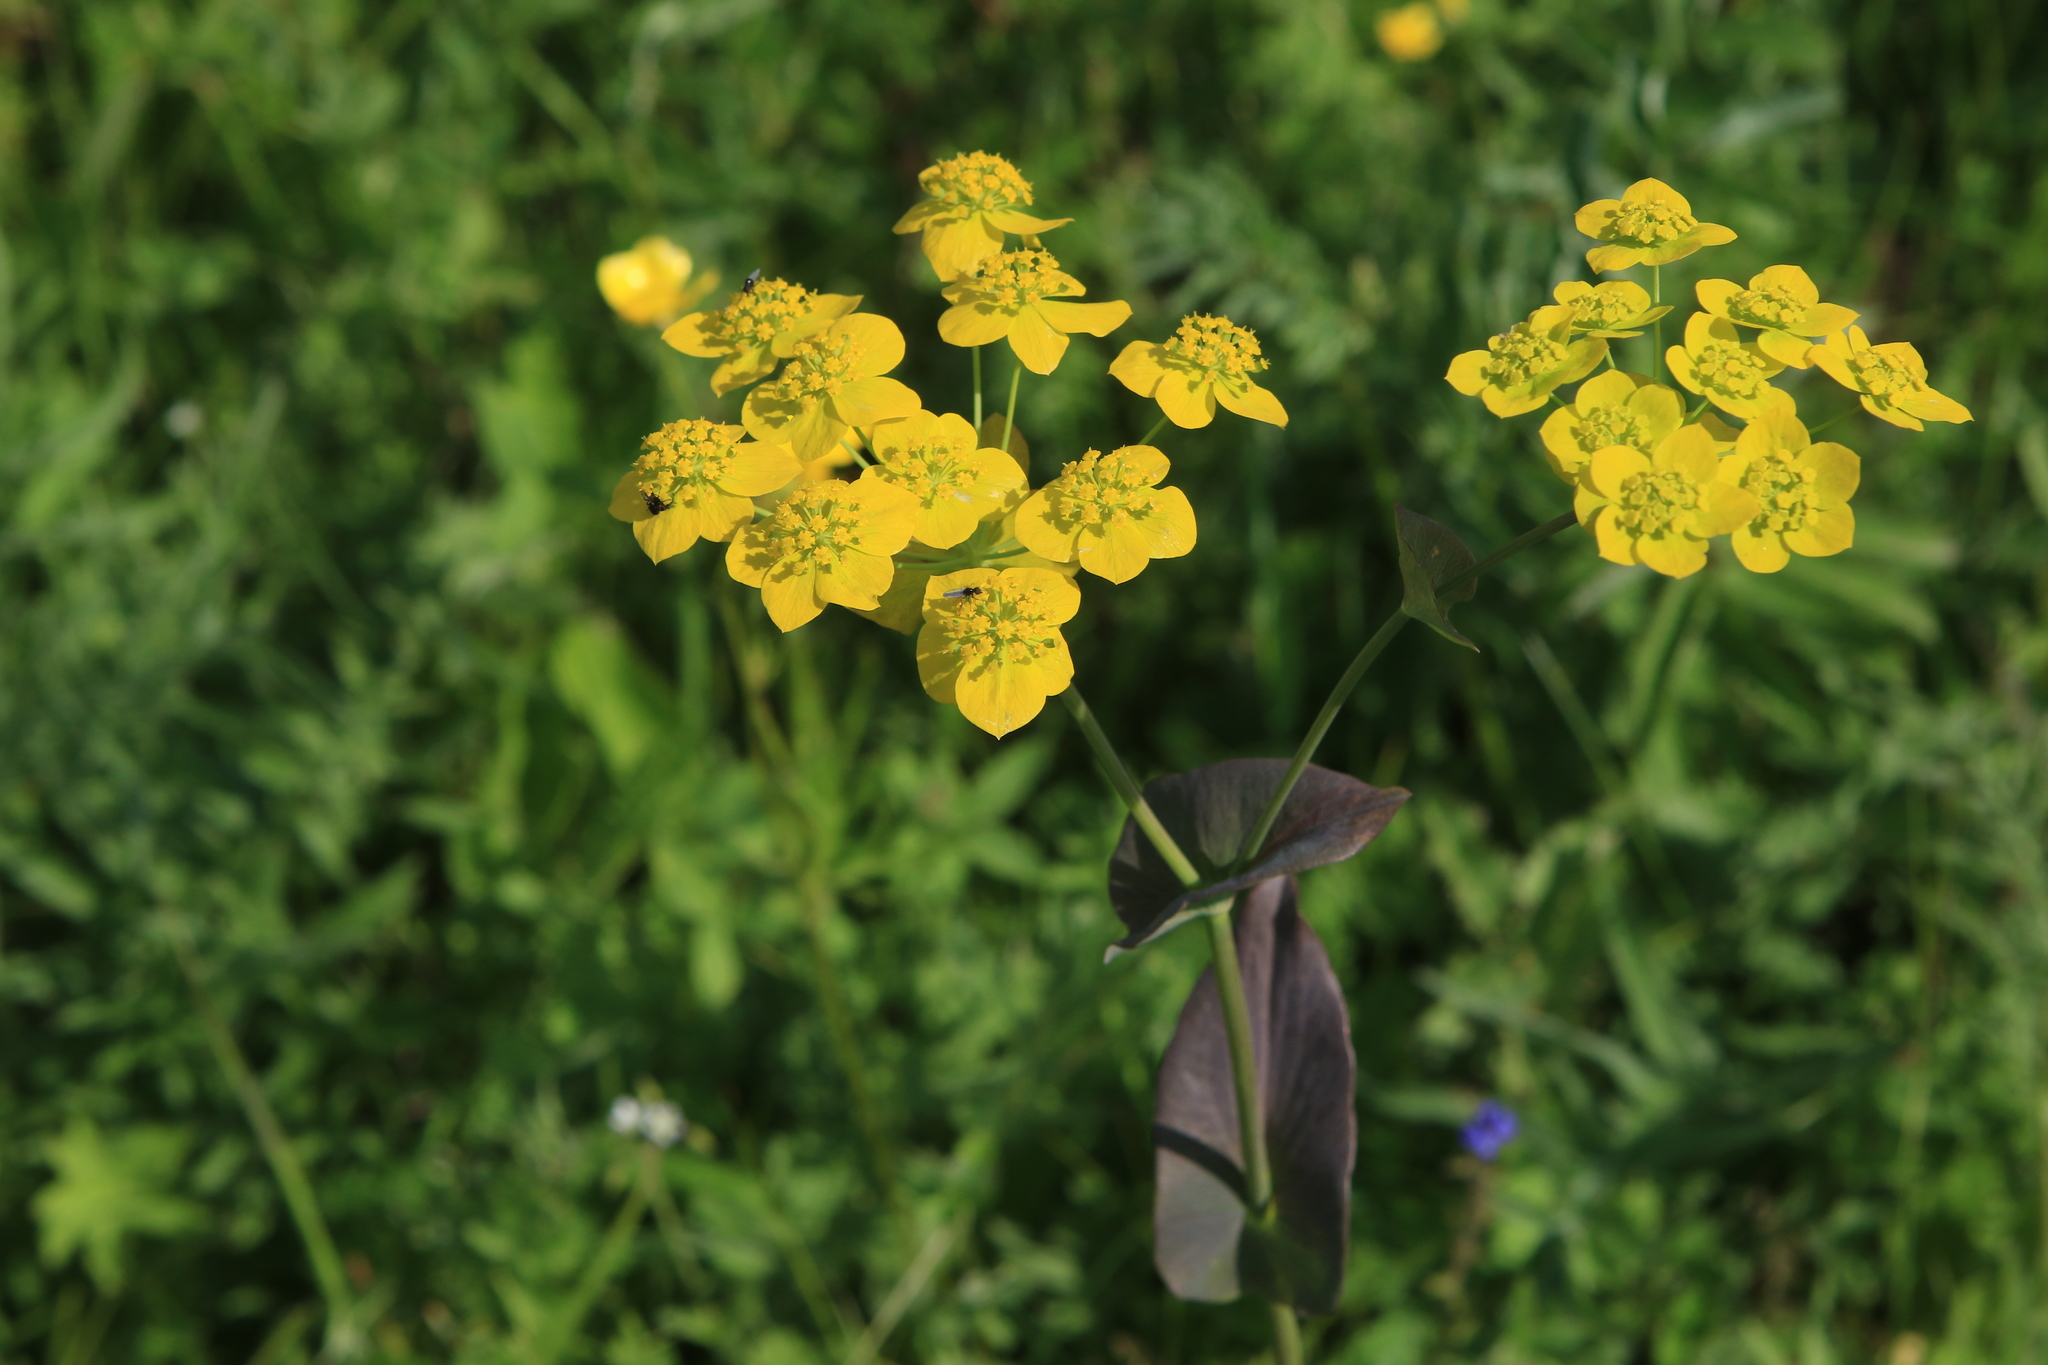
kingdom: Plantae
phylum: Tracheophyta
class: Magnoliopsida
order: Apiales
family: Apiaceae
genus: Bupleurum
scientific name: Bupleurum aureum
